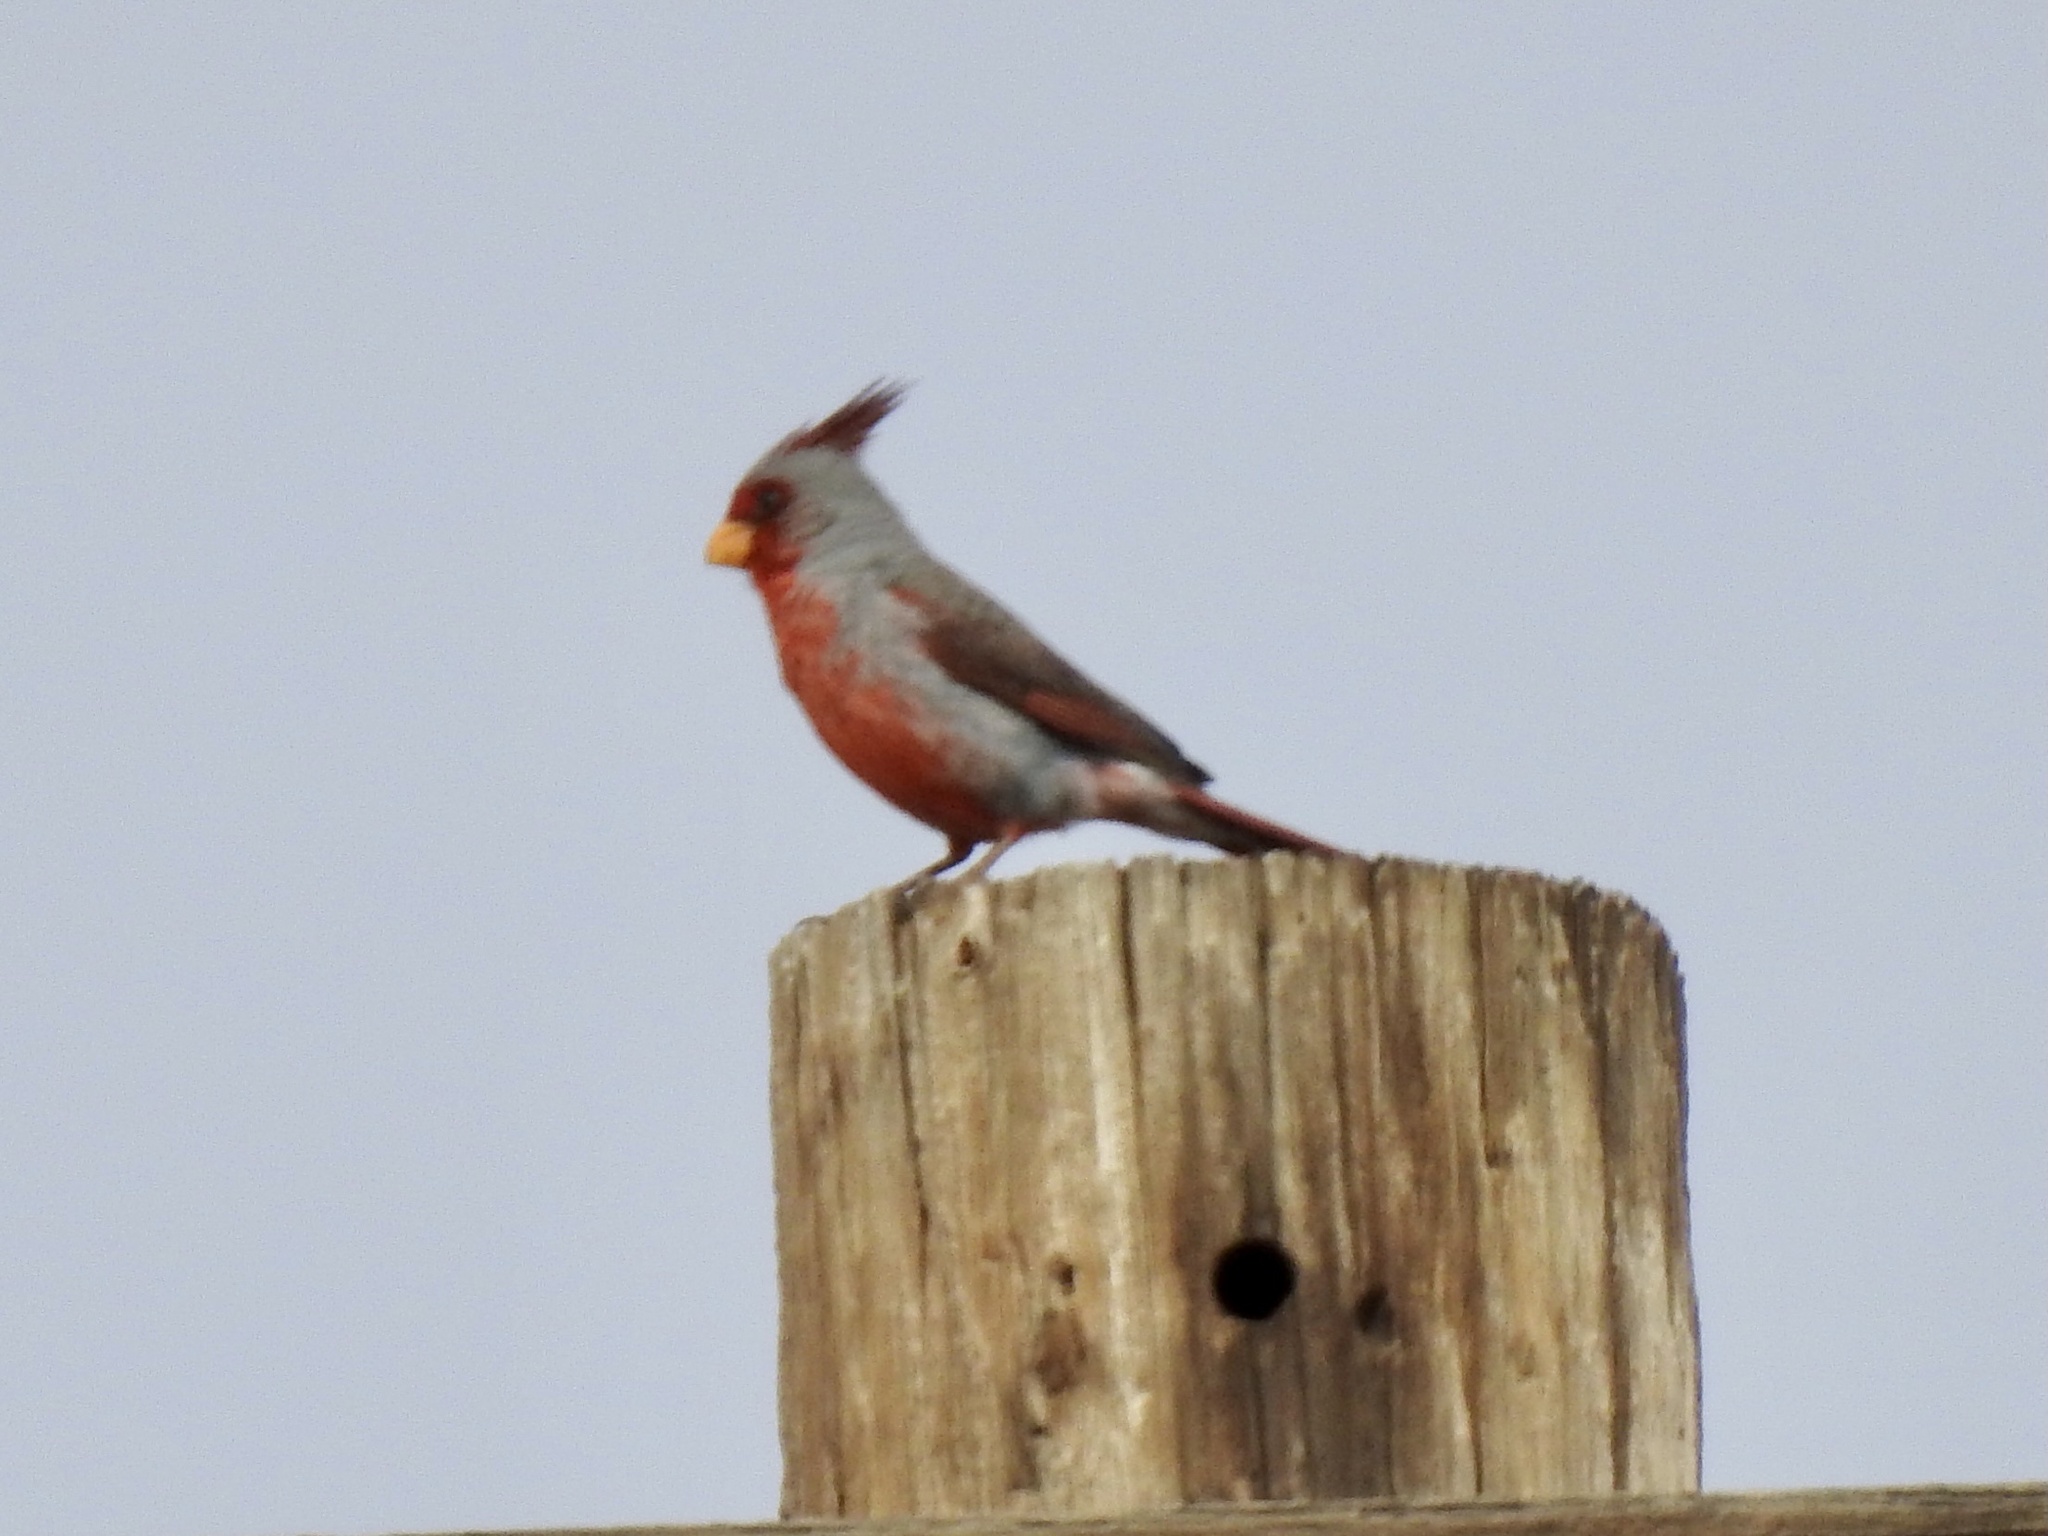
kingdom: Animalia
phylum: Chordata
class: Aves
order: Passeriformes
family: Cardinalidae
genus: Cardinalis
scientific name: Cardinalis sinuatus
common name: Pyrrhuloxia
